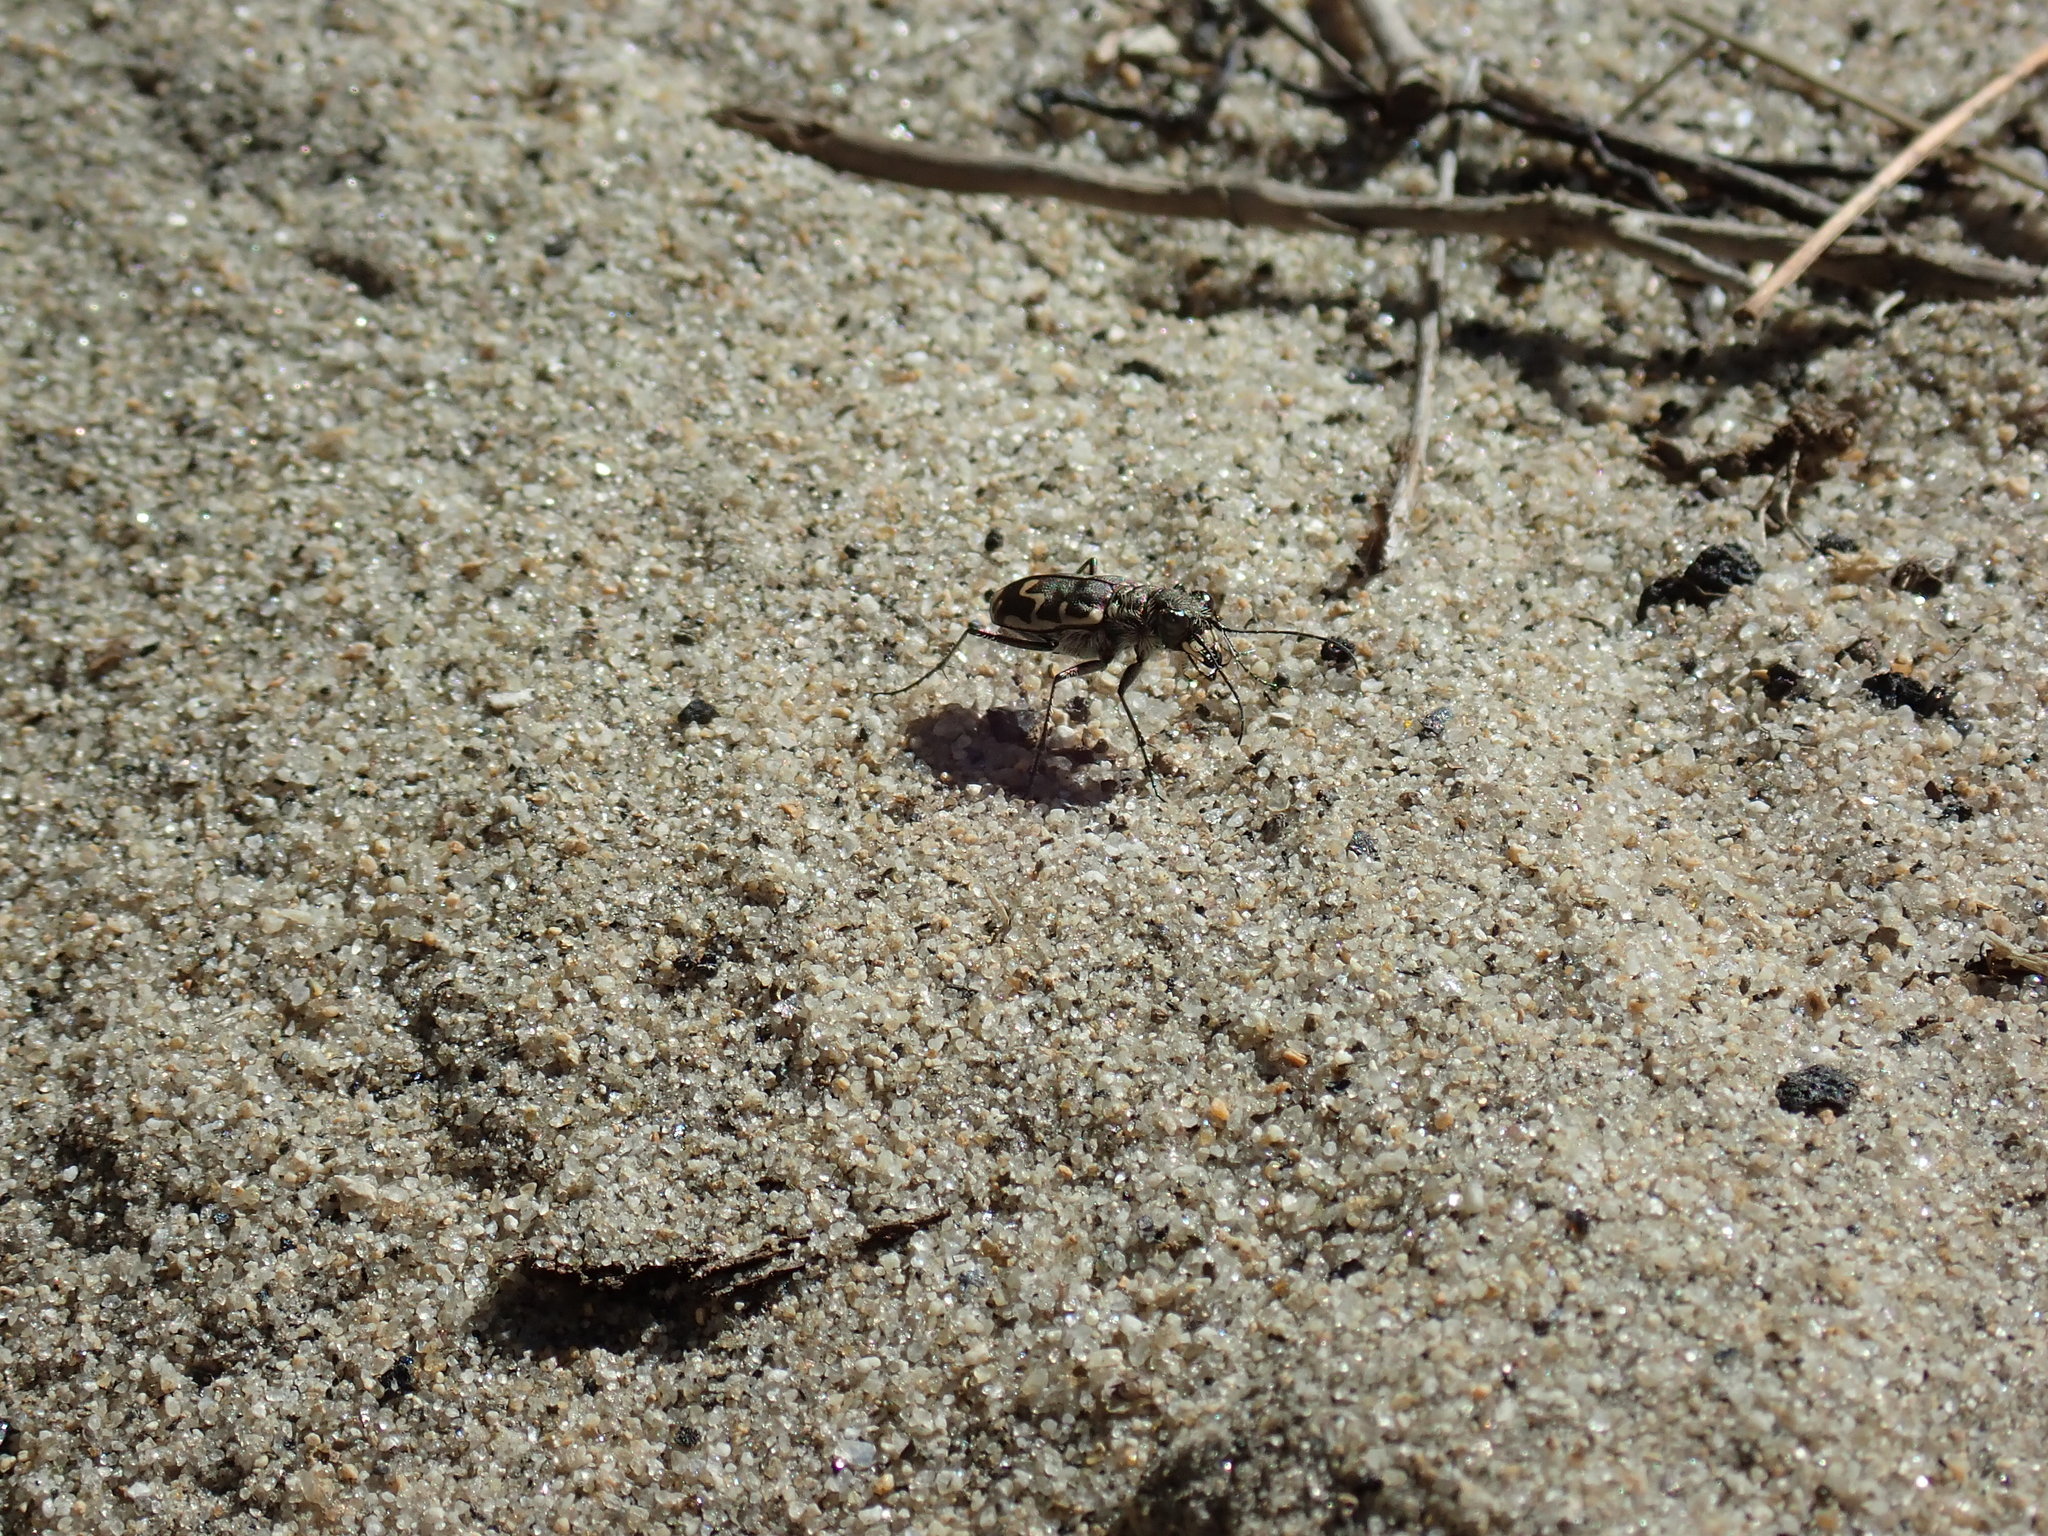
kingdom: Animalia
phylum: Arthropoda
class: Insecta
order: Coleoptera
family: Carabidae
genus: Cicindela
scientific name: Cicindela repanda
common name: Bronzed tiger beetle
